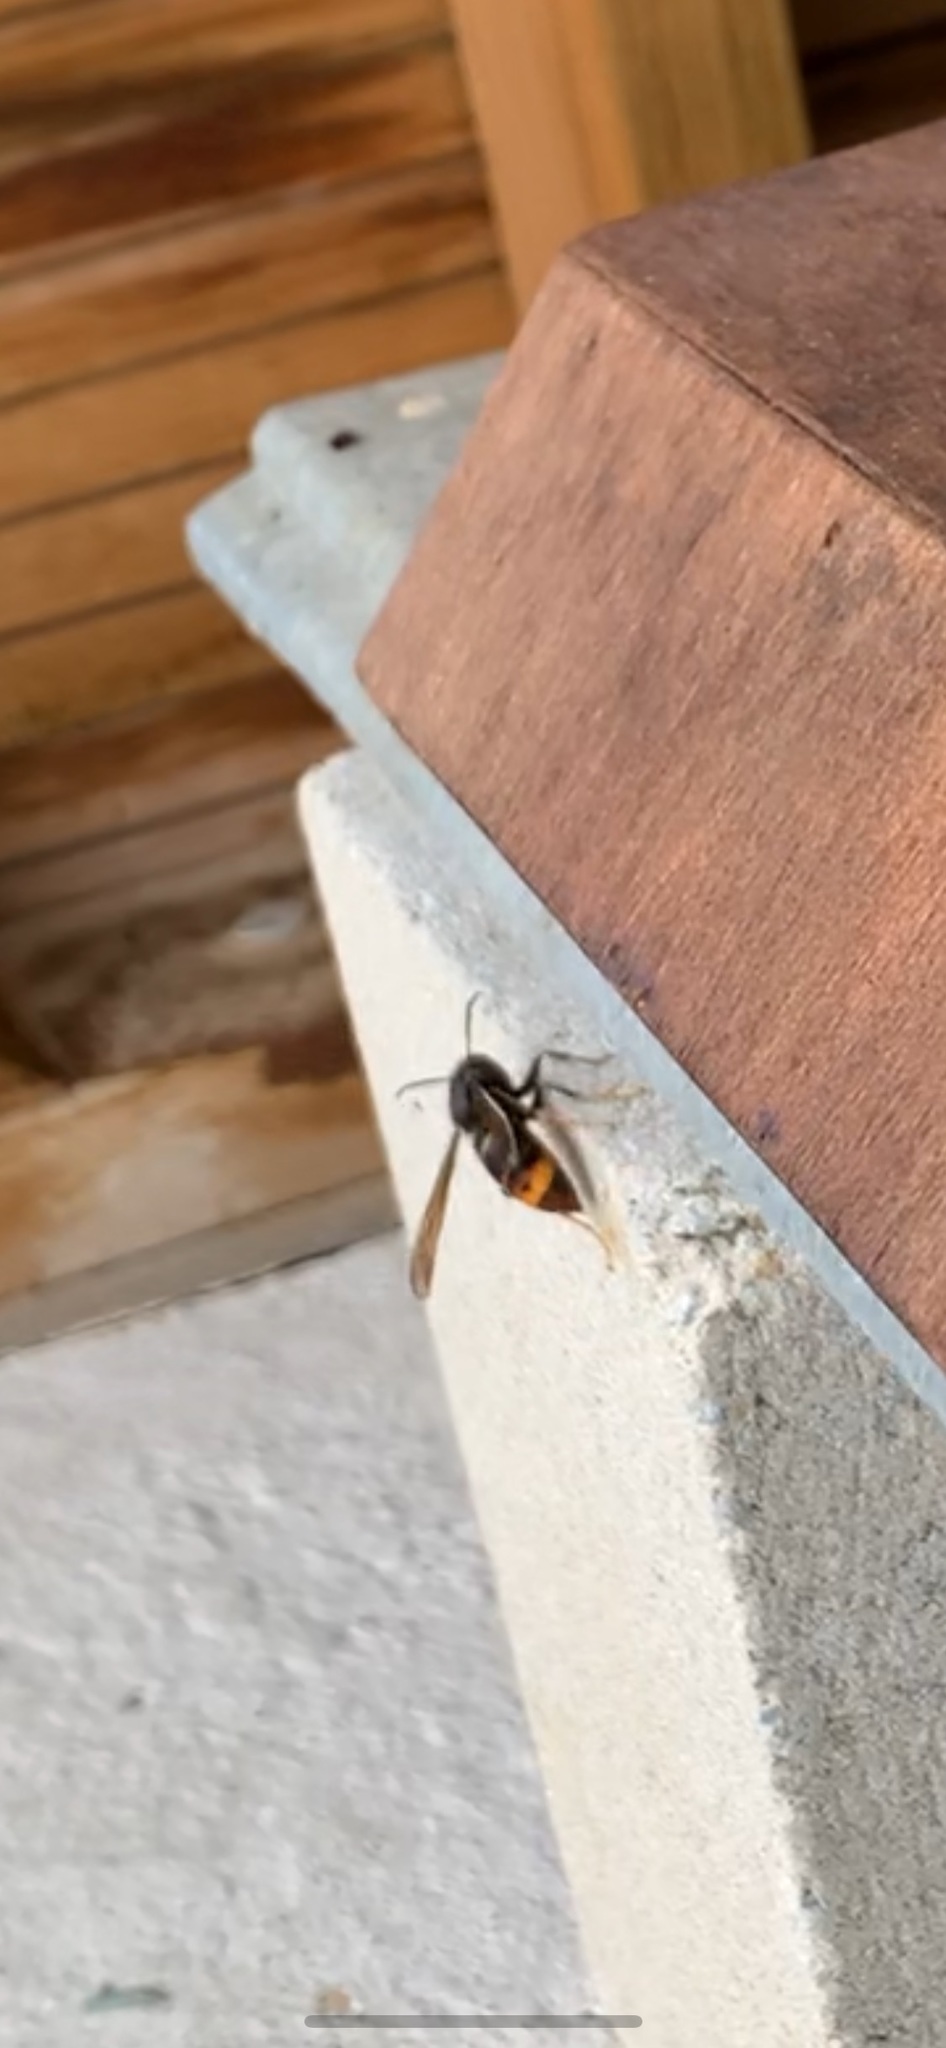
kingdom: Animalia
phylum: Arthropoda
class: Insecta
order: Hymenoptera
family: Vespidae
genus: Vespa
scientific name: Vespa velutina
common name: Asian hornet
